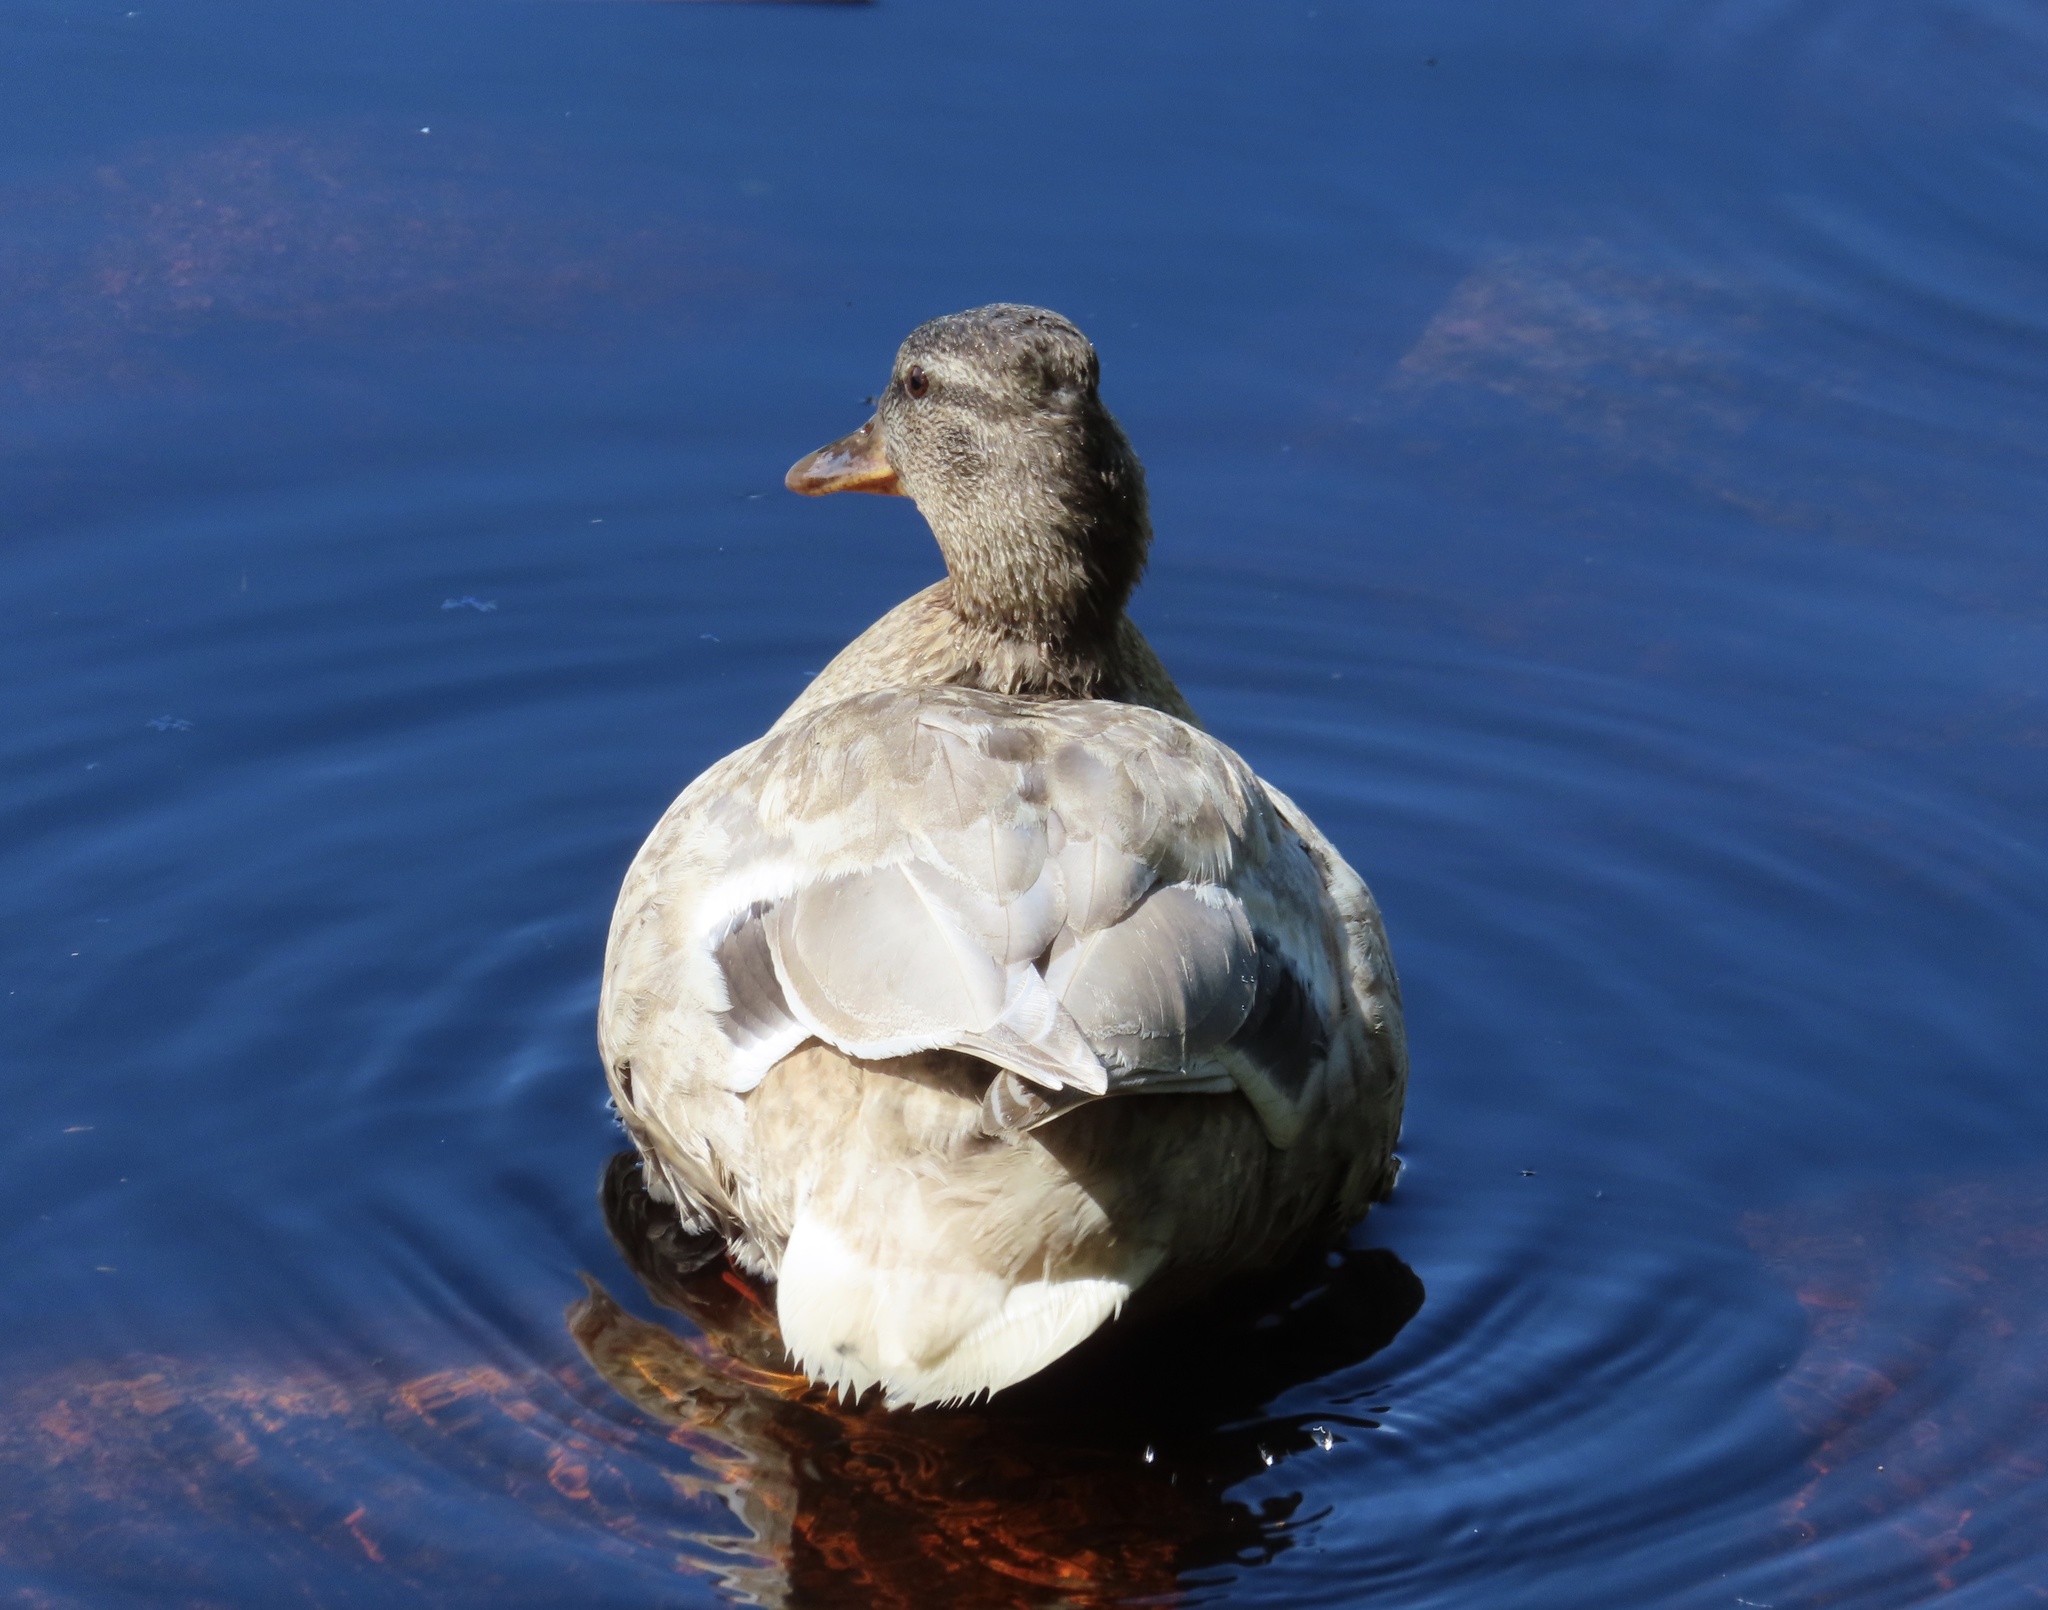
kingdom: Animalia
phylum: Chordata
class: Aves
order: Anseriformes
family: Anatidae
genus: Anas
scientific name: Anas platyrhynchos
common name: Mallard
